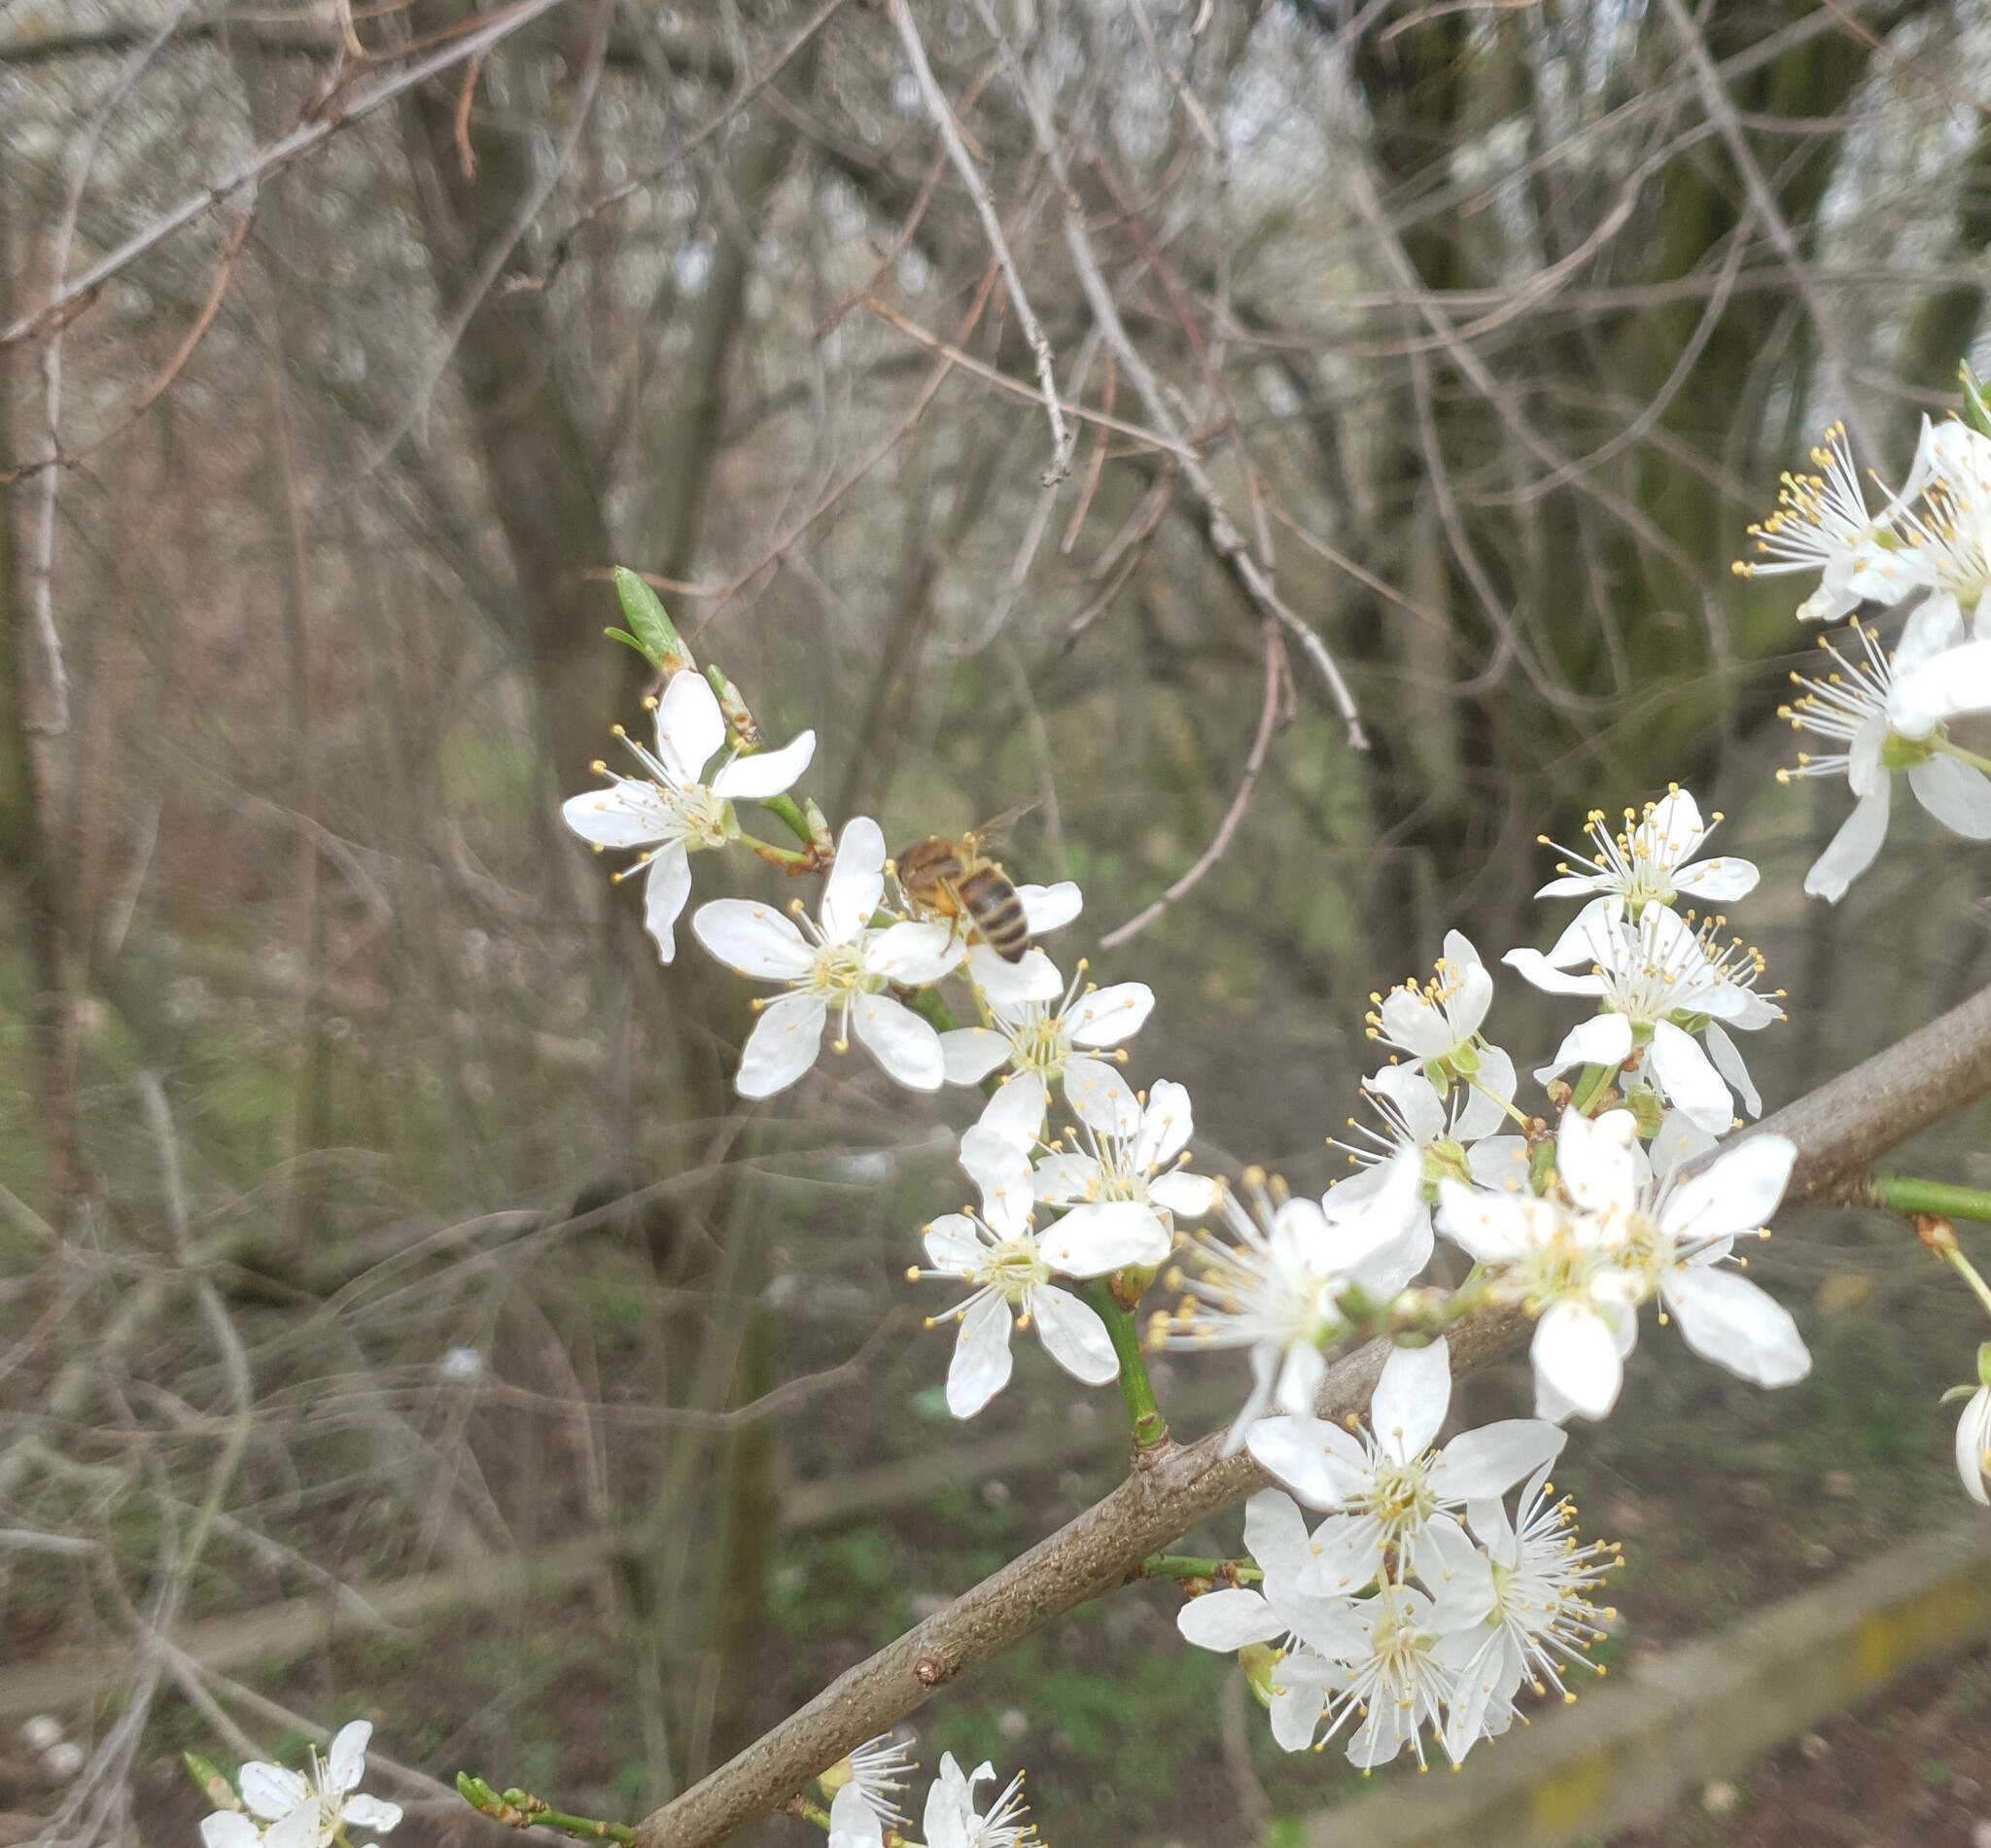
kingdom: Animalia
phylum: Arthropoda
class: Insecta
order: Hymenoptera
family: Apidae
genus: Apis
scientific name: Apis mellifera
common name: Honey bee
